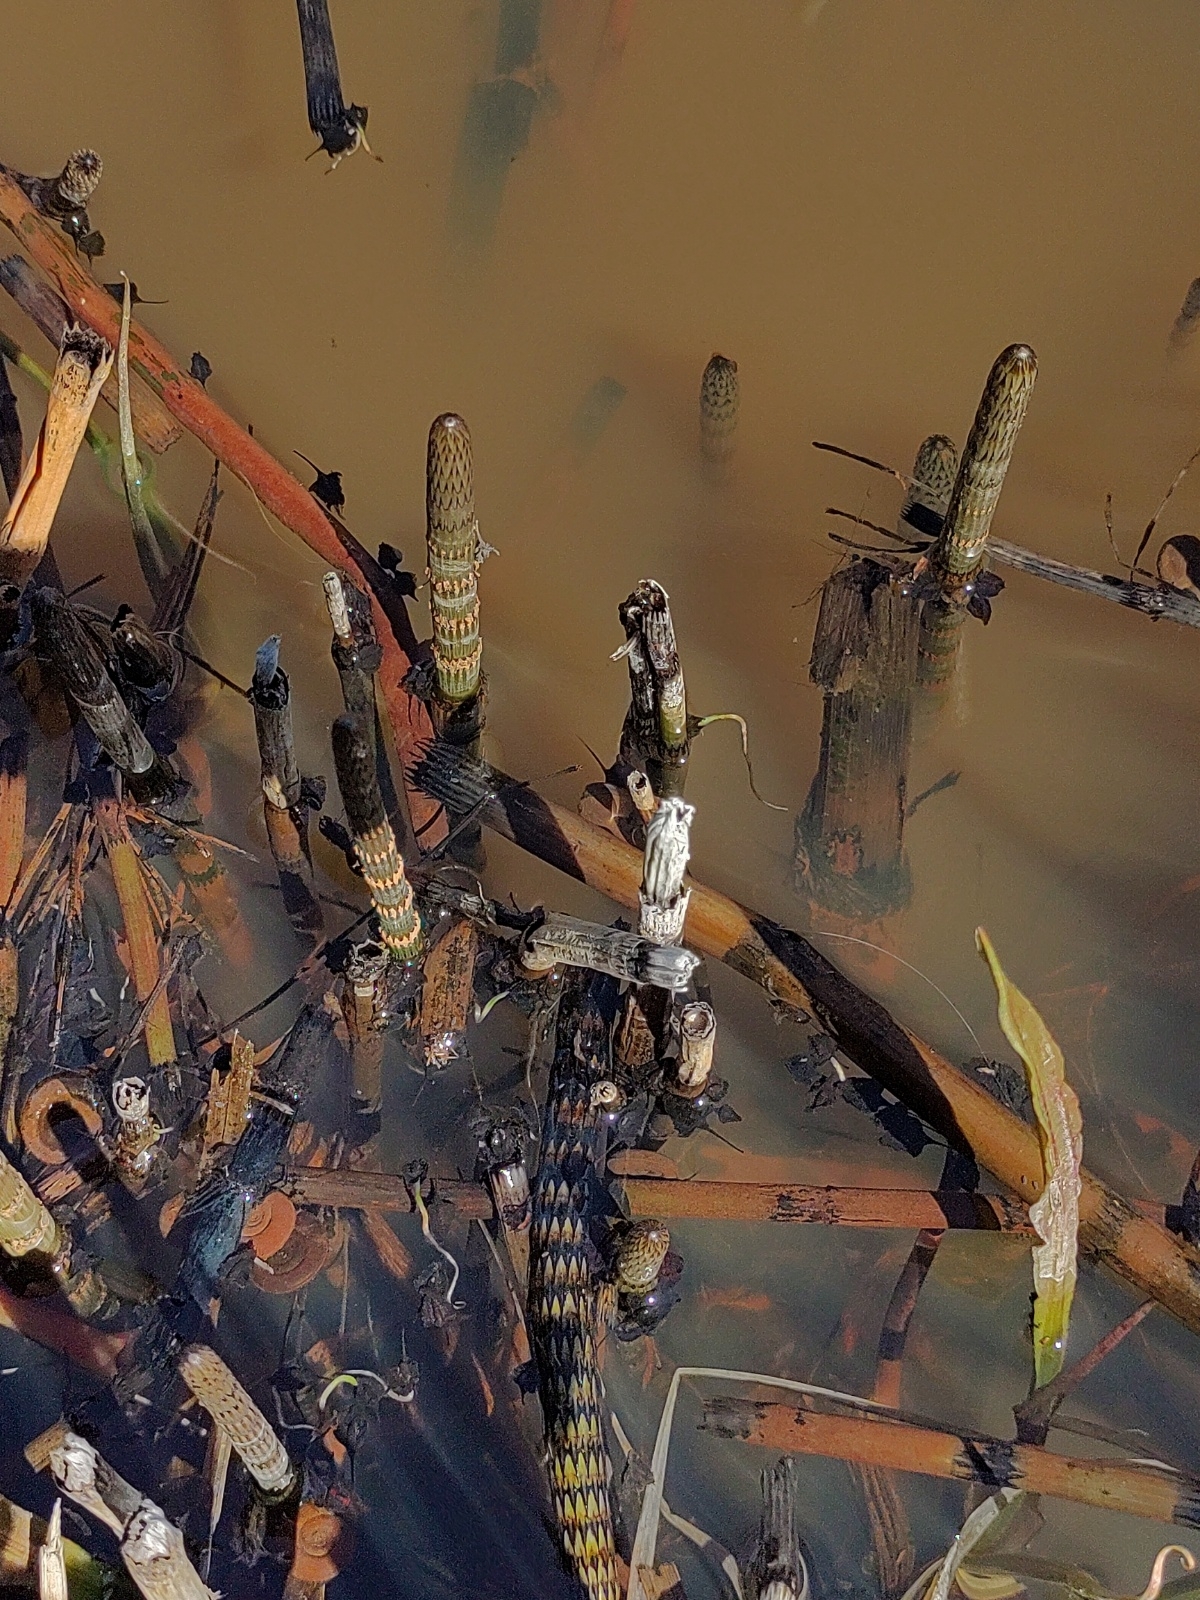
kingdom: Plantae
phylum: Tracheophyta
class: Polypodiopsida
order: Equisetales
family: Equisetaceae
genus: Equisetum
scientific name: Equisetum fluviatile
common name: Water horsetail
